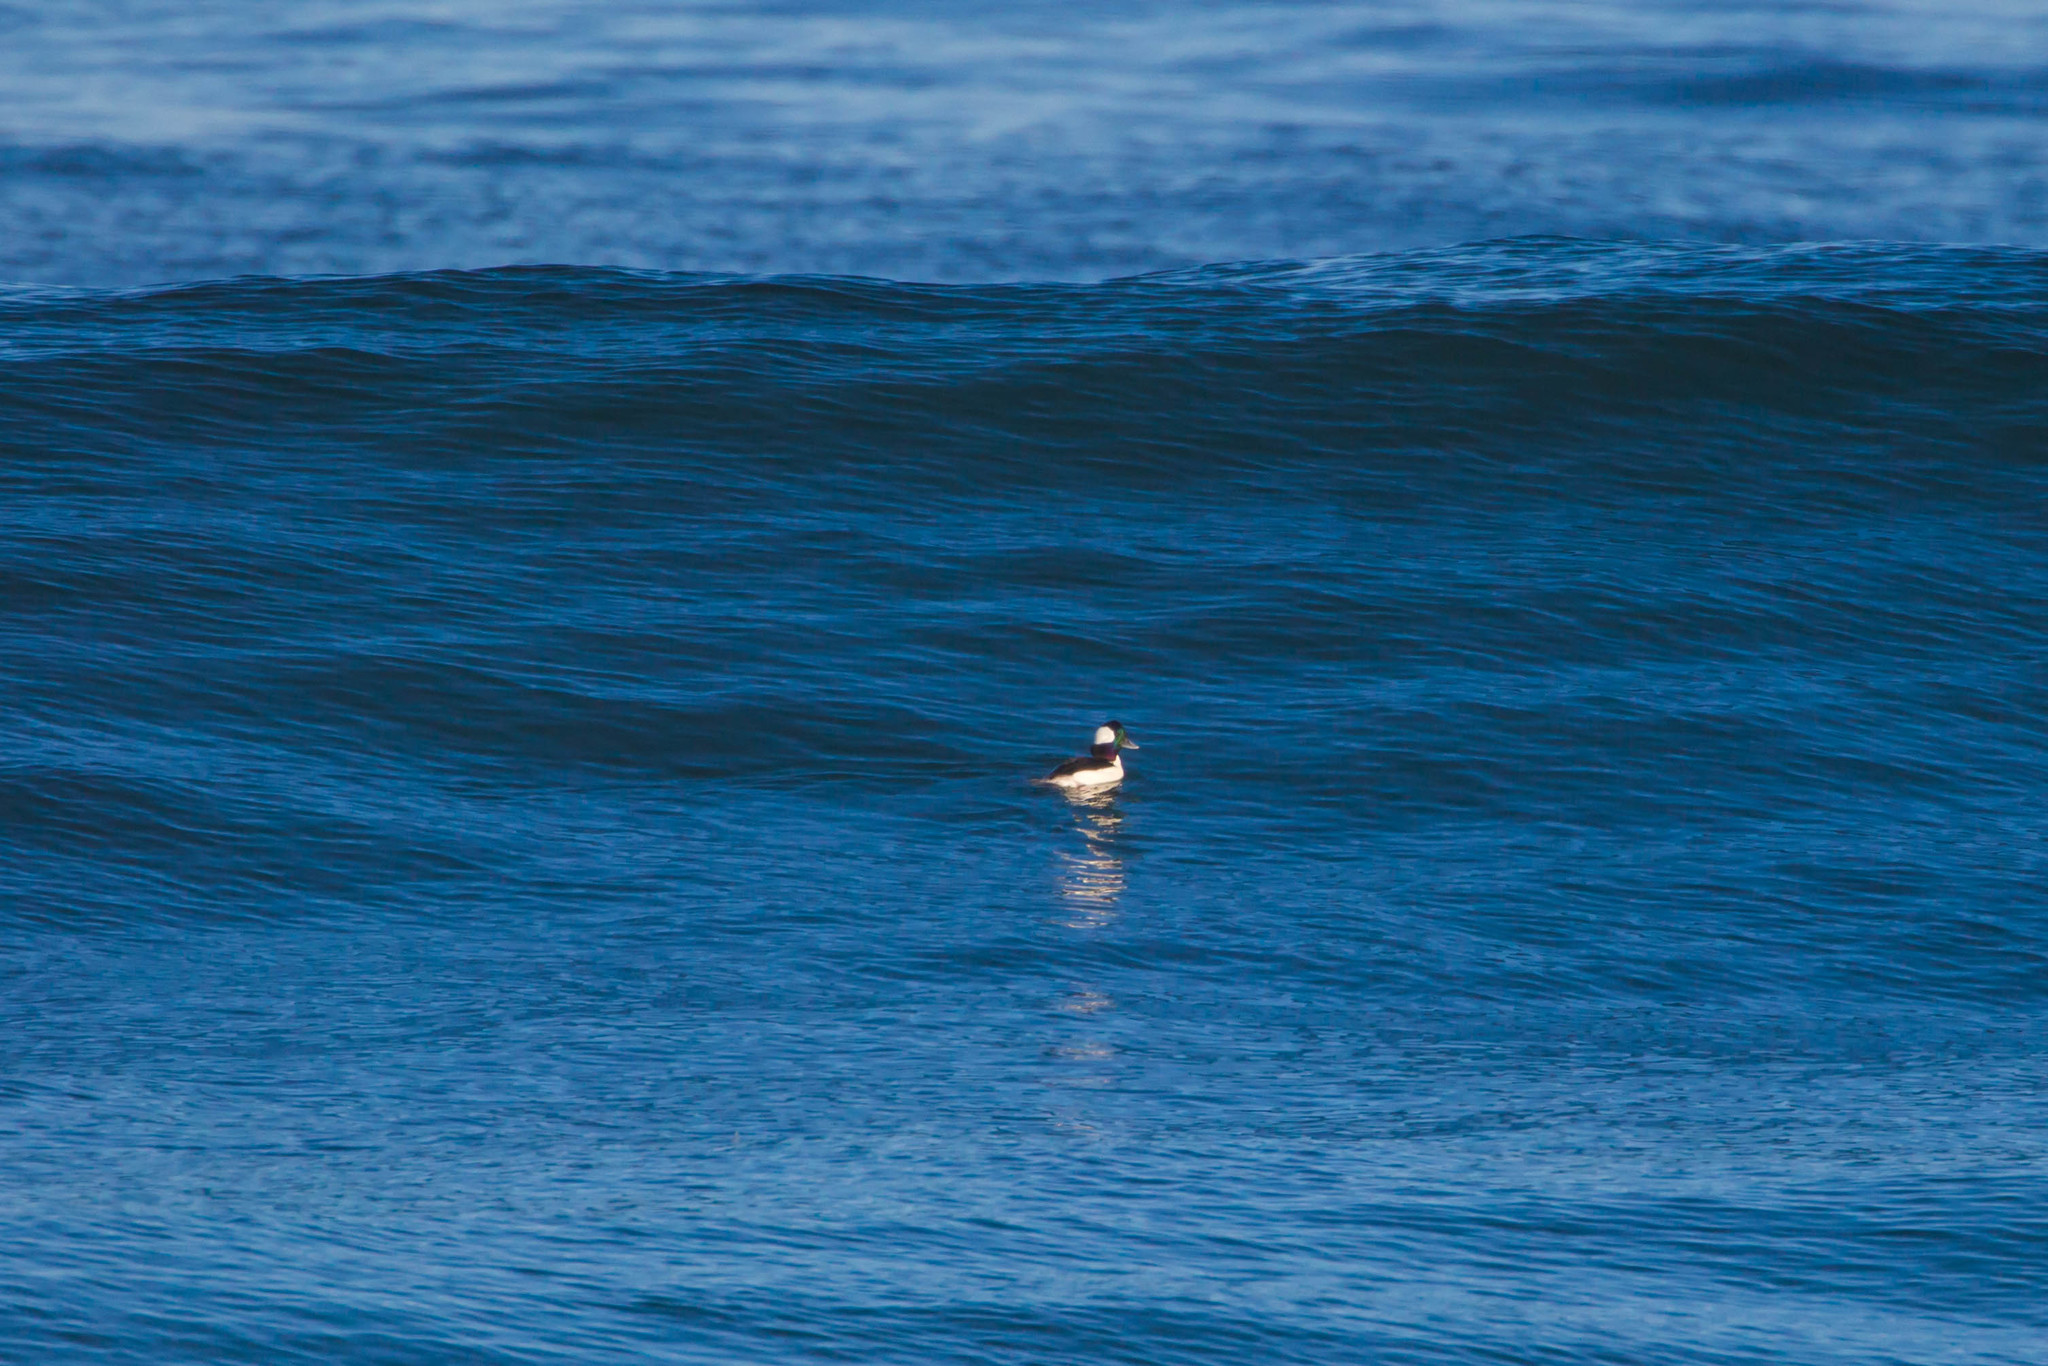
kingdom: Animalia
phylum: Chordata
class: Aves
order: Anseriformes
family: Anatidae
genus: Bucephala
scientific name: Bucephala albeola
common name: Bufflehead
